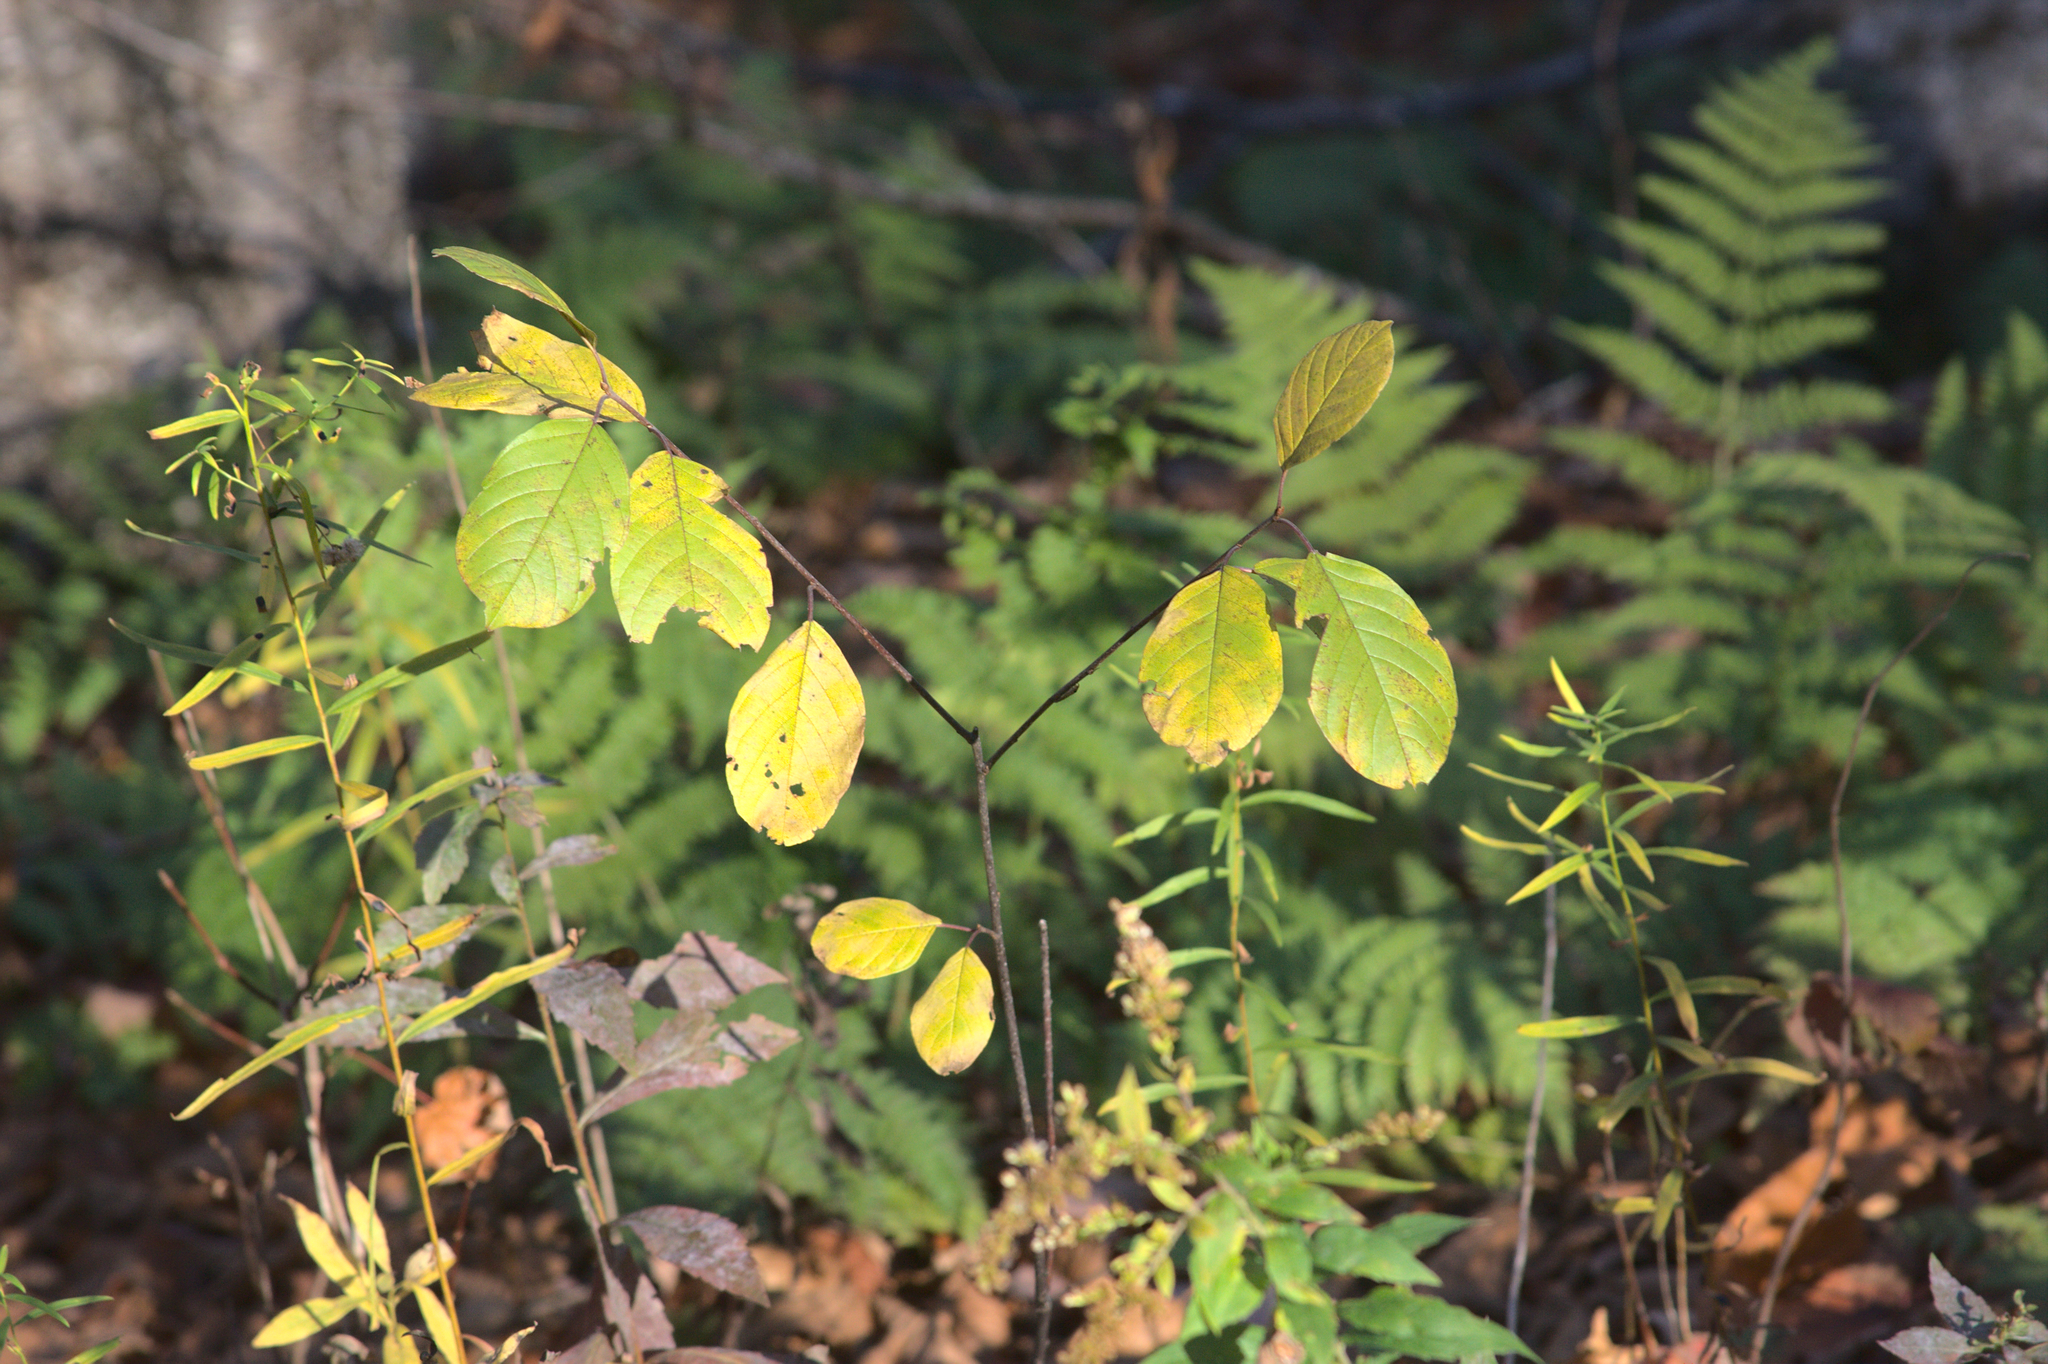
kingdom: Plantae
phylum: Tracheophyta
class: Magnoliopsida
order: Rosales
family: Rhamnaceae
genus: Frangula
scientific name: Frangula alnus
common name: Alder buckthorn
